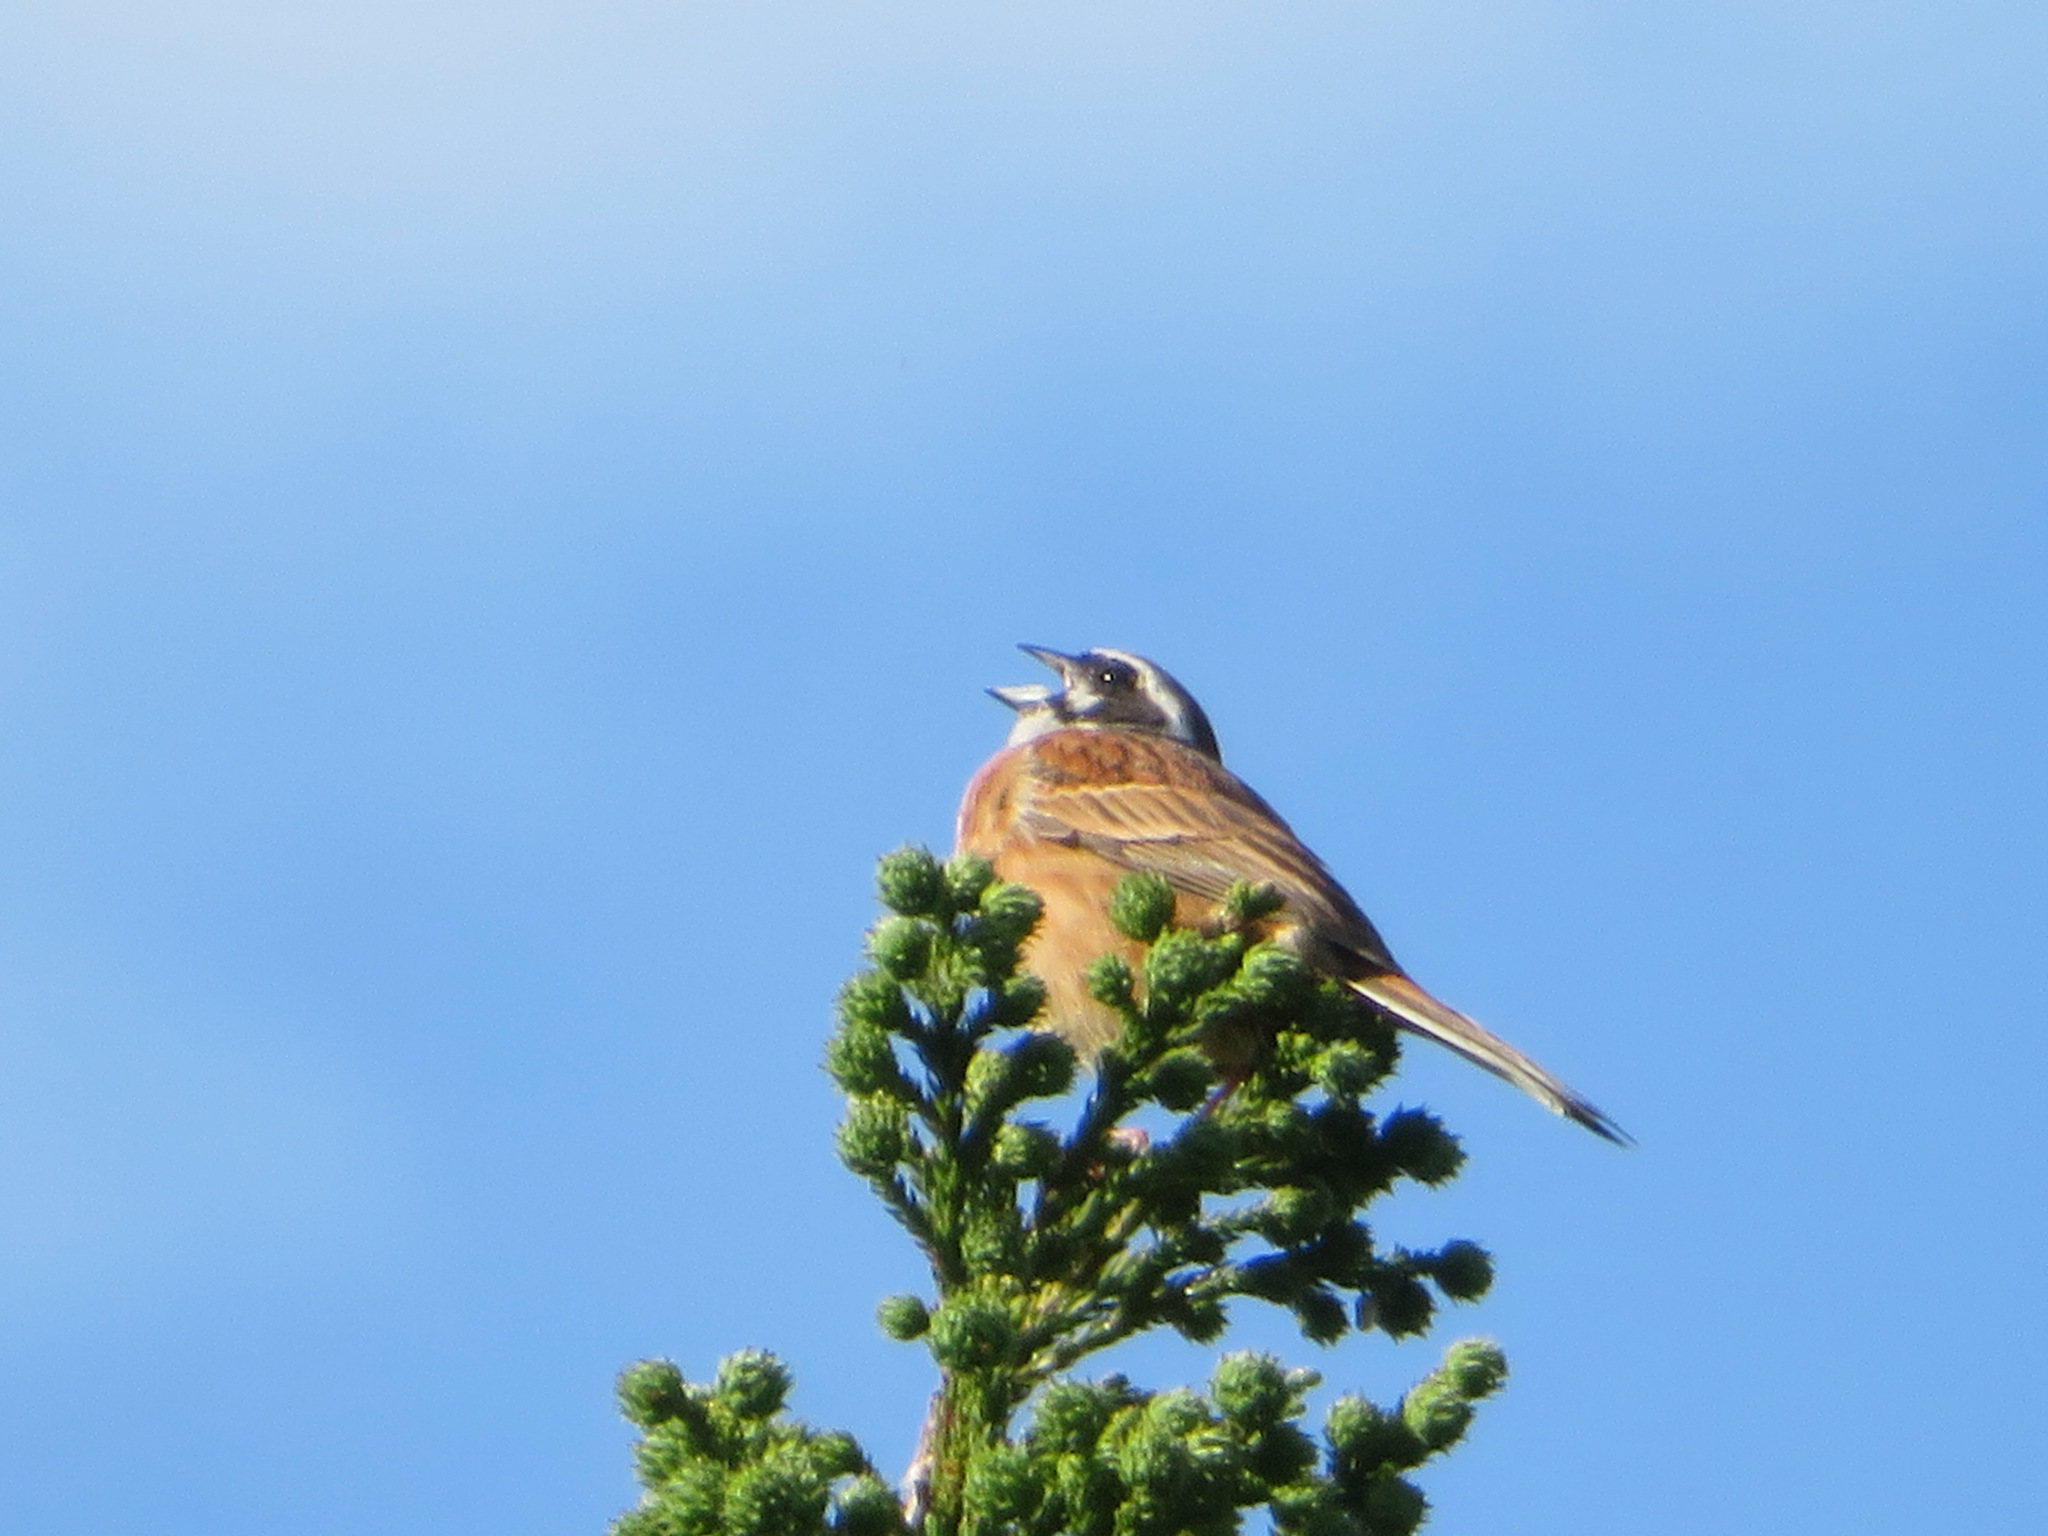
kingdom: Animalia
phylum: Chordata
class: Aves
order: Passeriformes
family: Emberizidae
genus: Emberiza
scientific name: Emberiza cioides
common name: Meadow bunting
